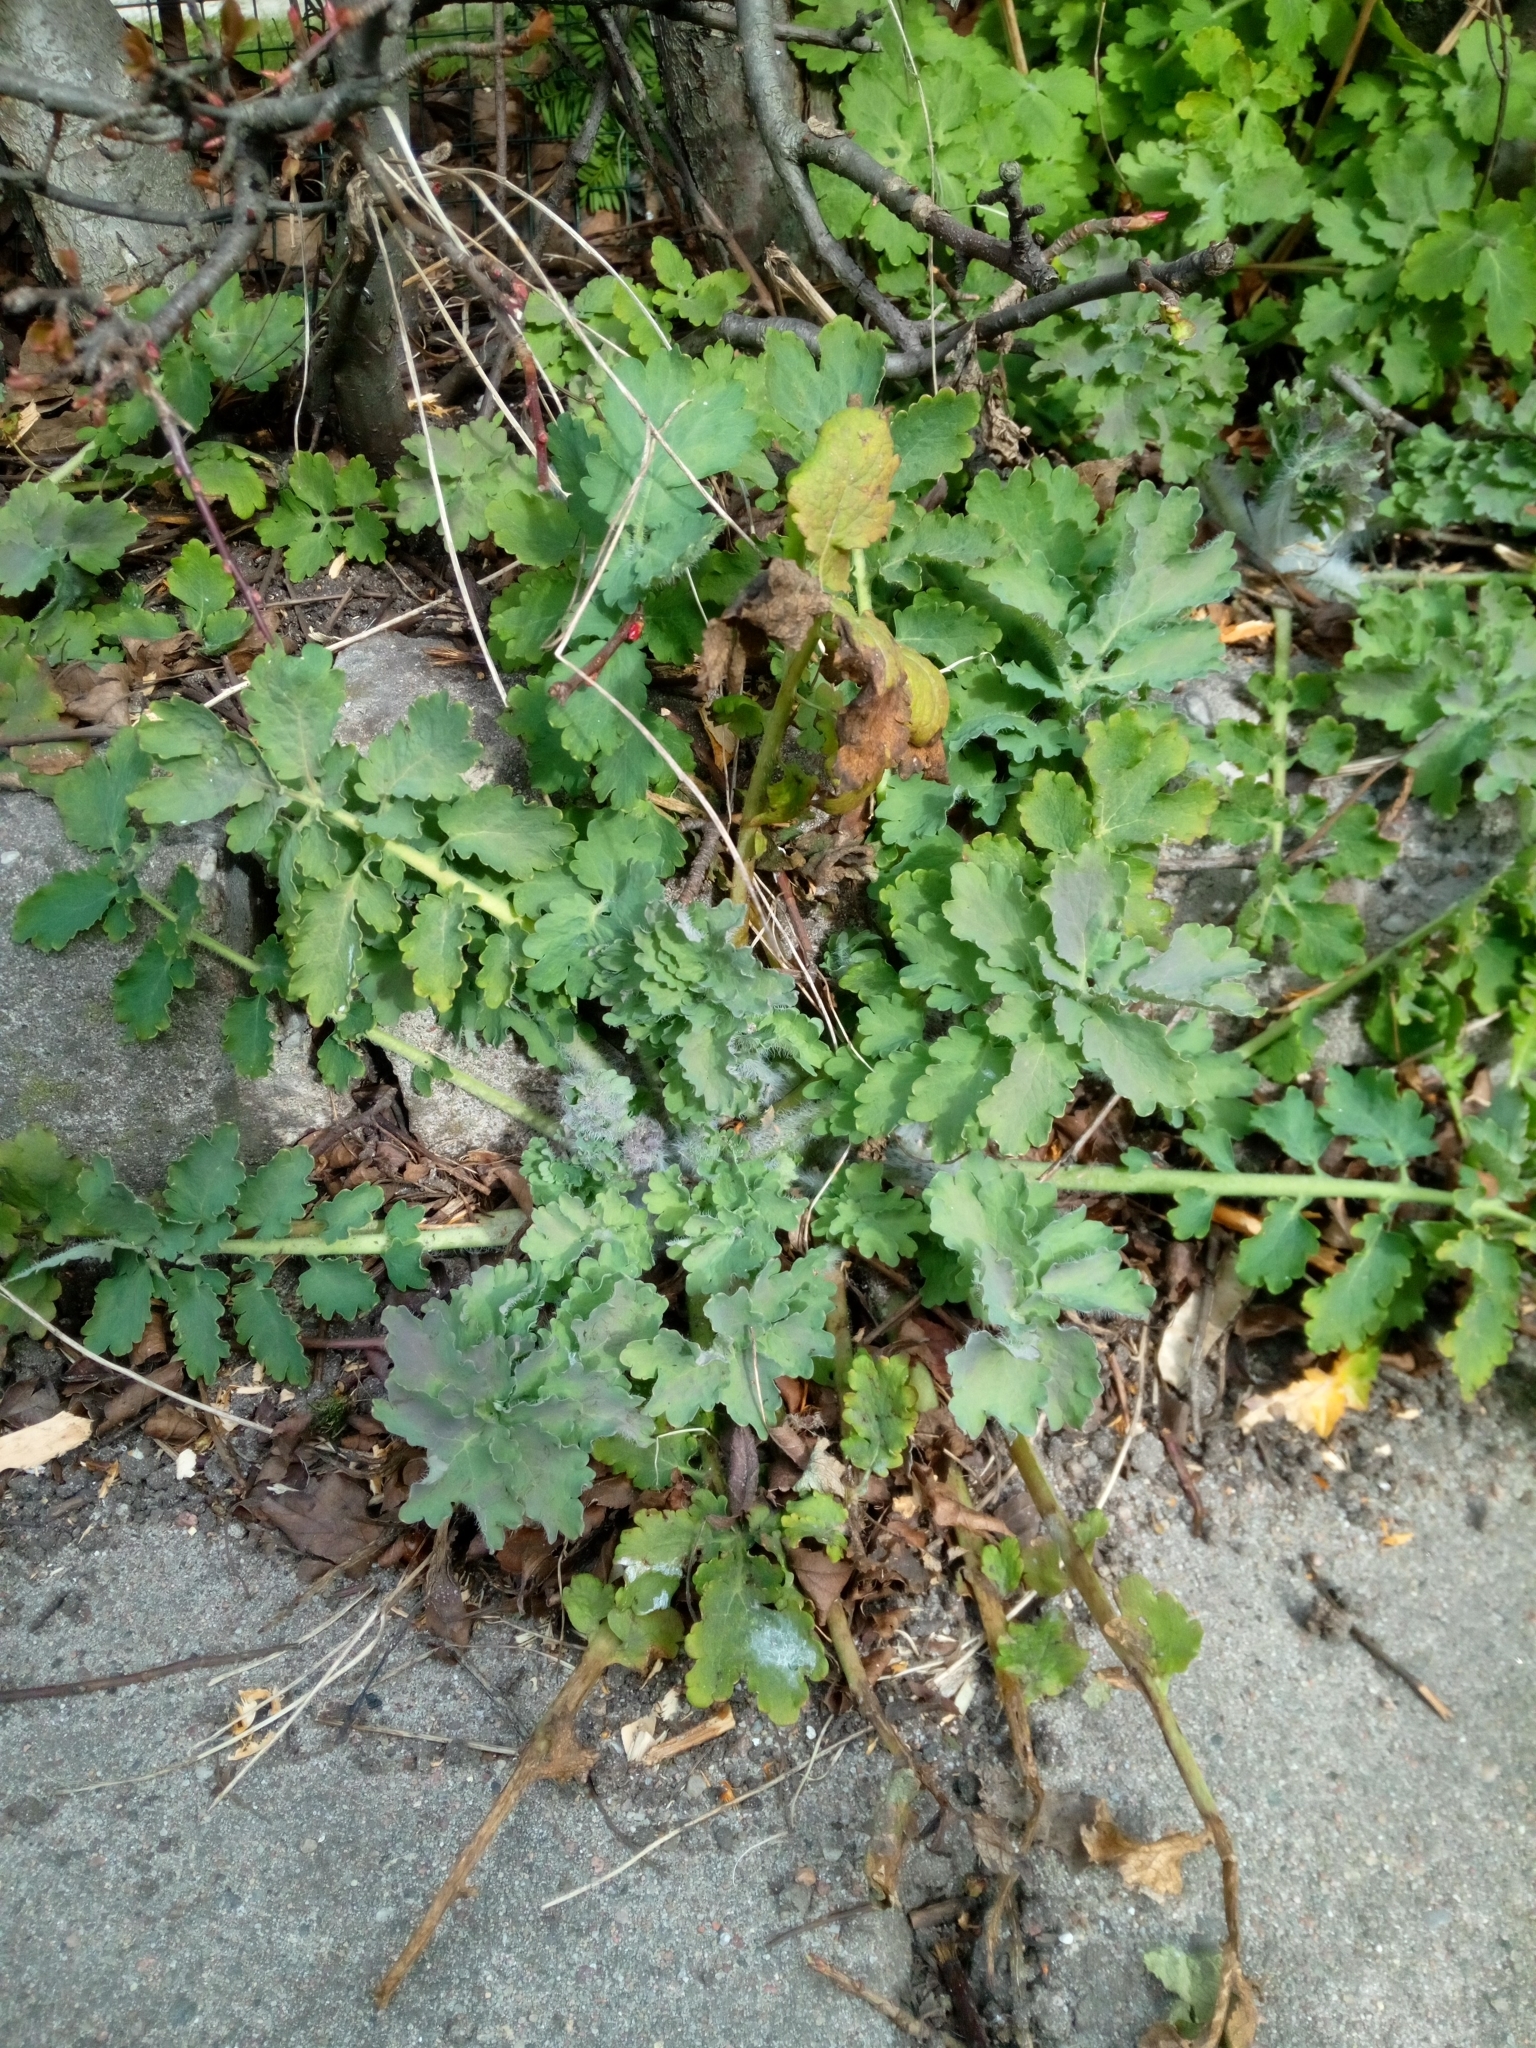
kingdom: Plantae
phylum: Tracheophyta
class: Magnoliopsida
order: Ranunculales
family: Papaveraceae
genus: Chelidonium
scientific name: Chelidonium majus
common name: Greater celandine
